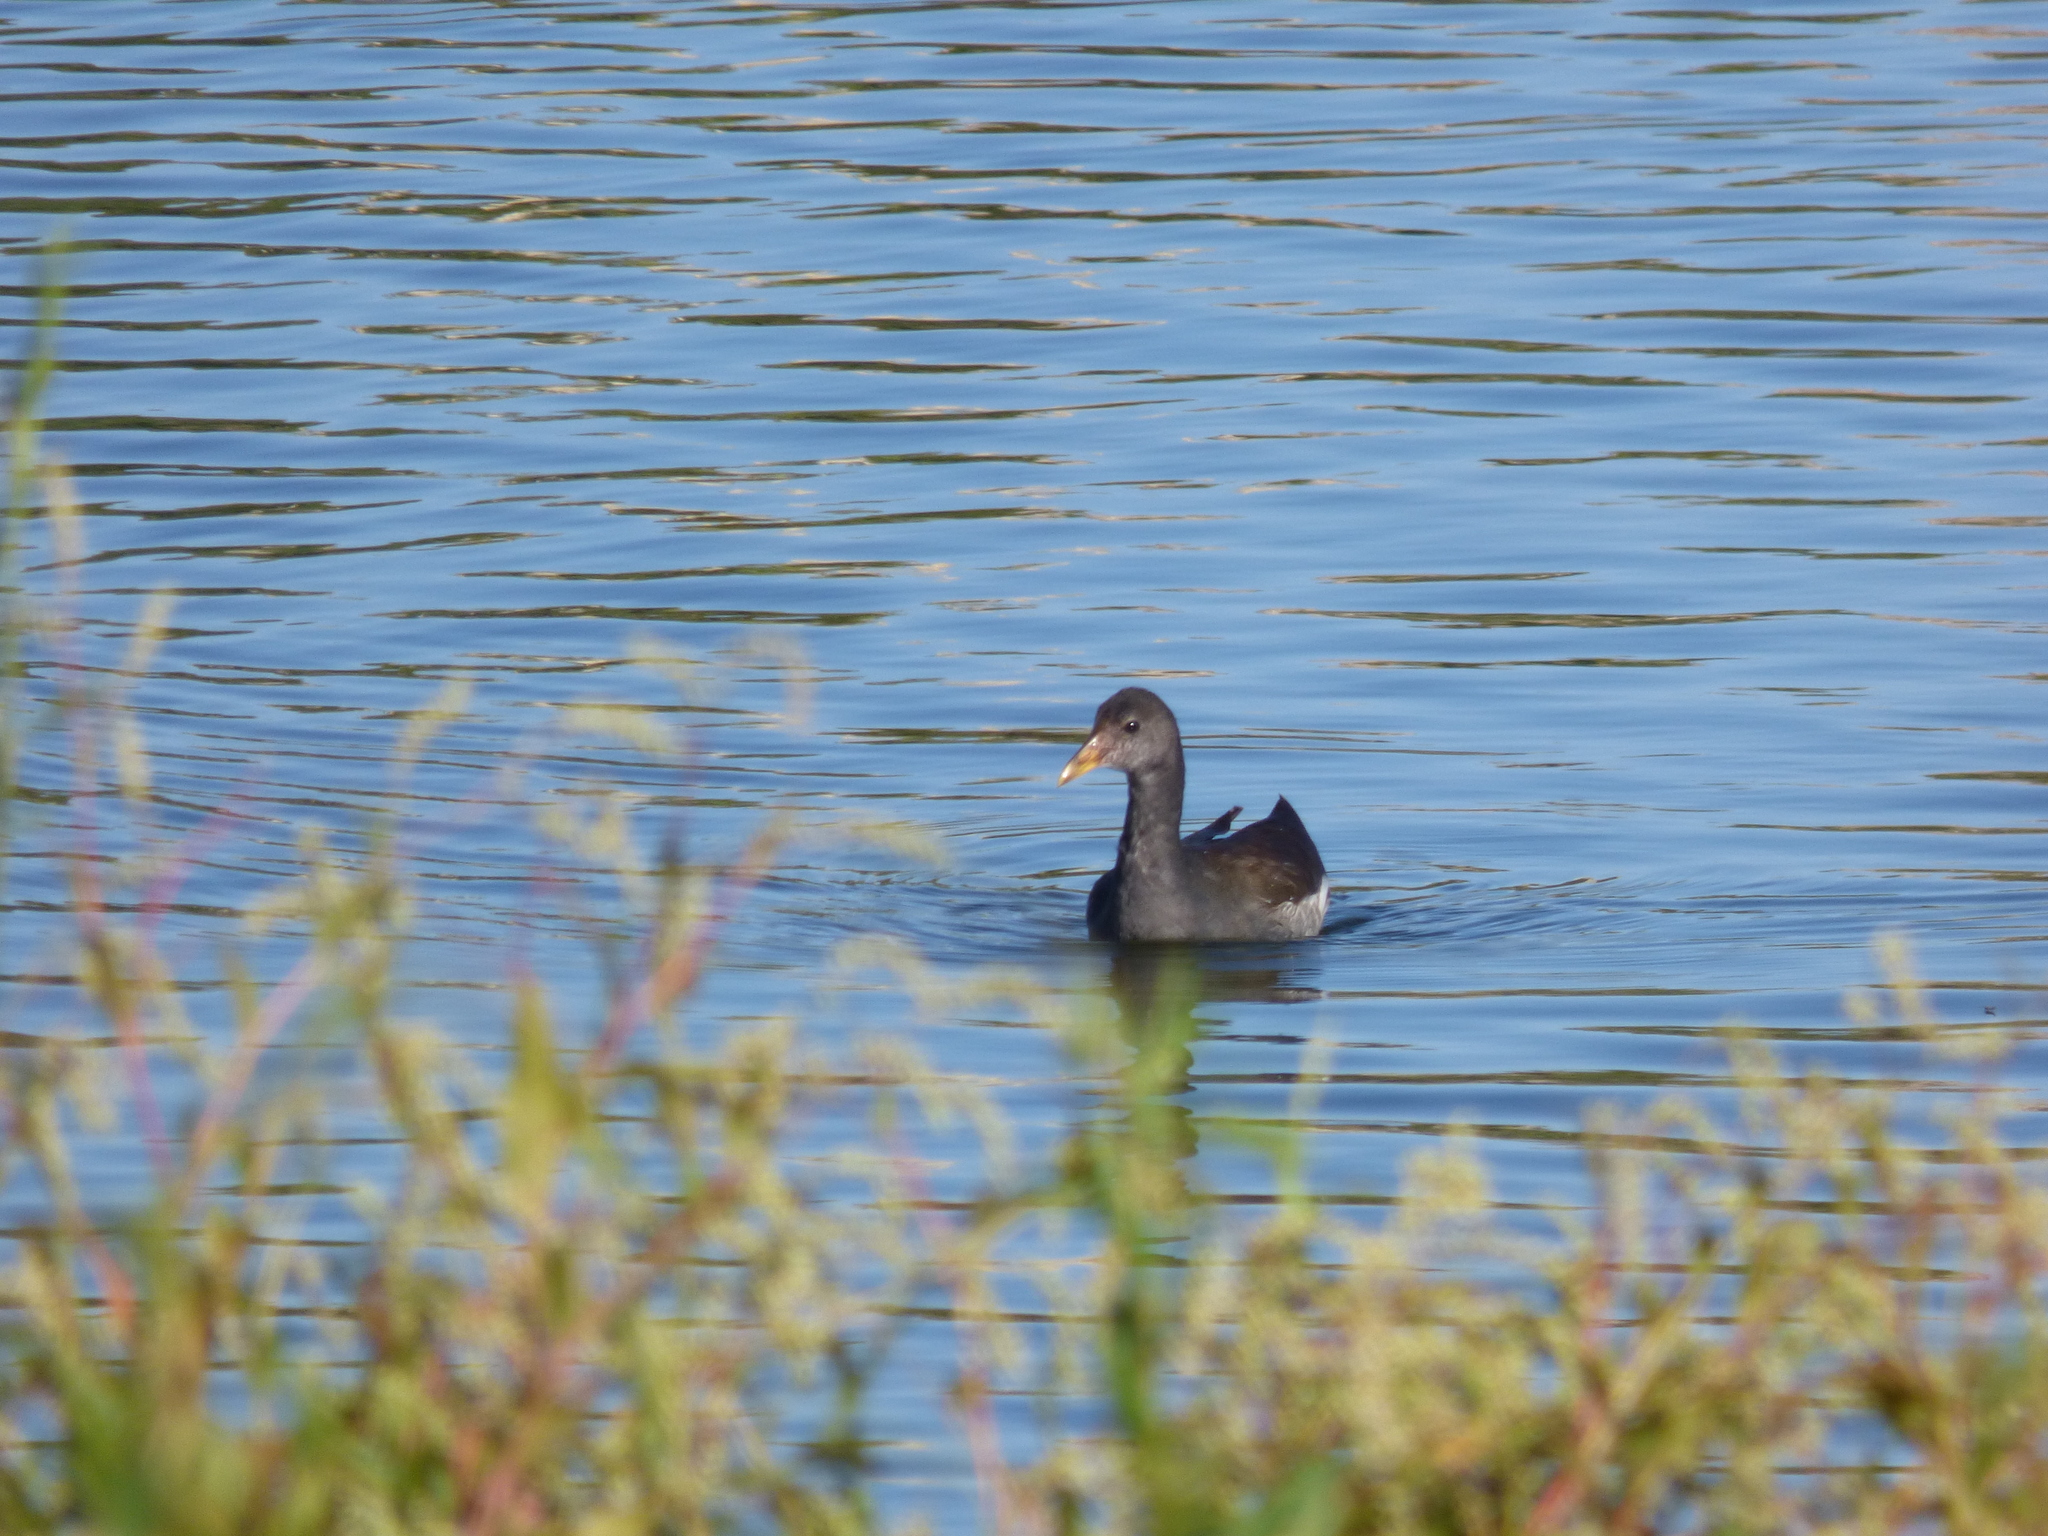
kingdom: Animalia
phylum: Chordata
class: Aves
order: Gruiformes
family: Rallidae
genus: Gallinula
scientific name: Gallinula chloropus
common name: Common moorhen
